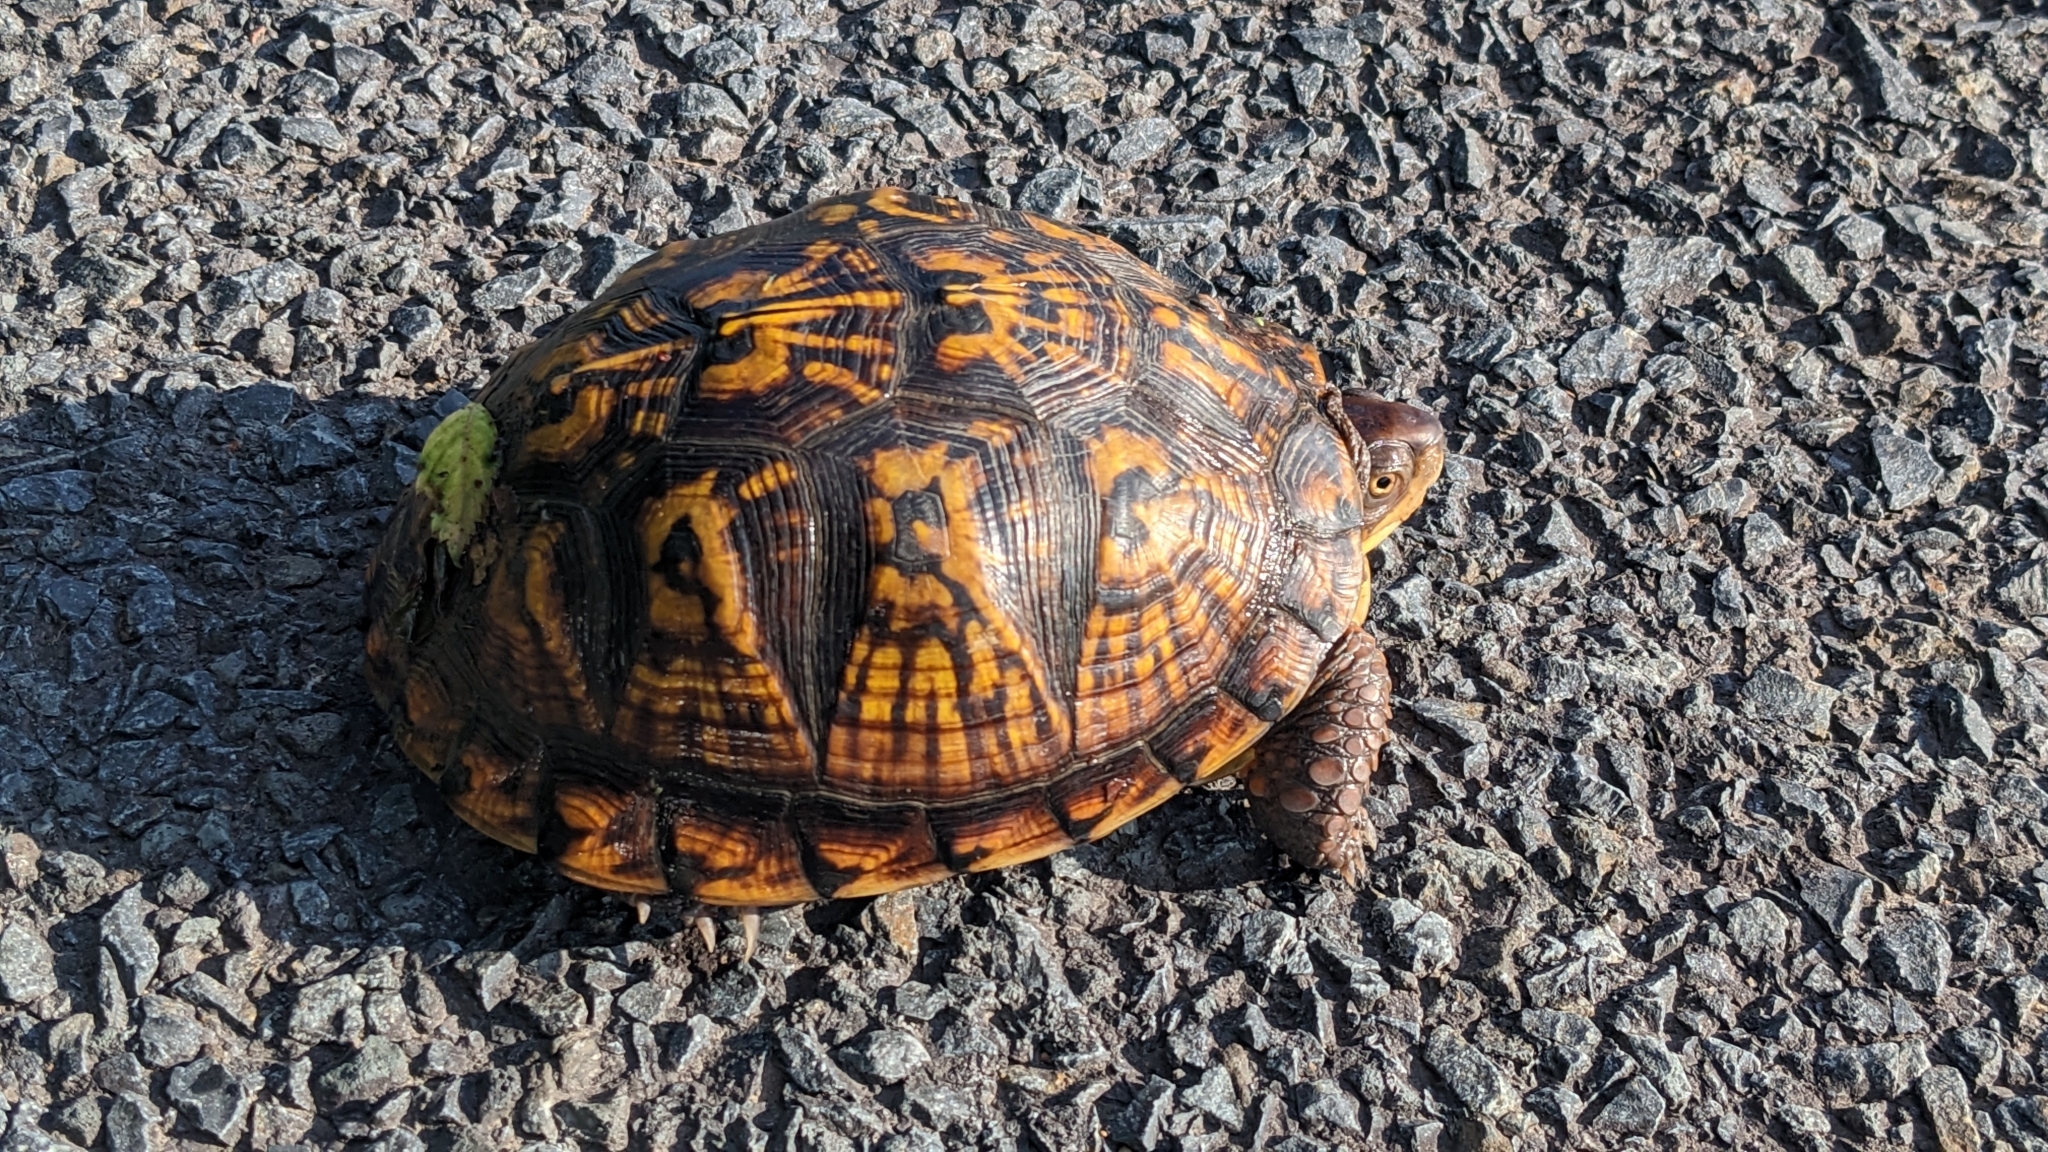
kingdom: Animalia
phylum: Chordata
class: Testudines
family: Emydidae
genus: Terrapene
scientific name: Terrapene carolina
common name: Common box turtle
